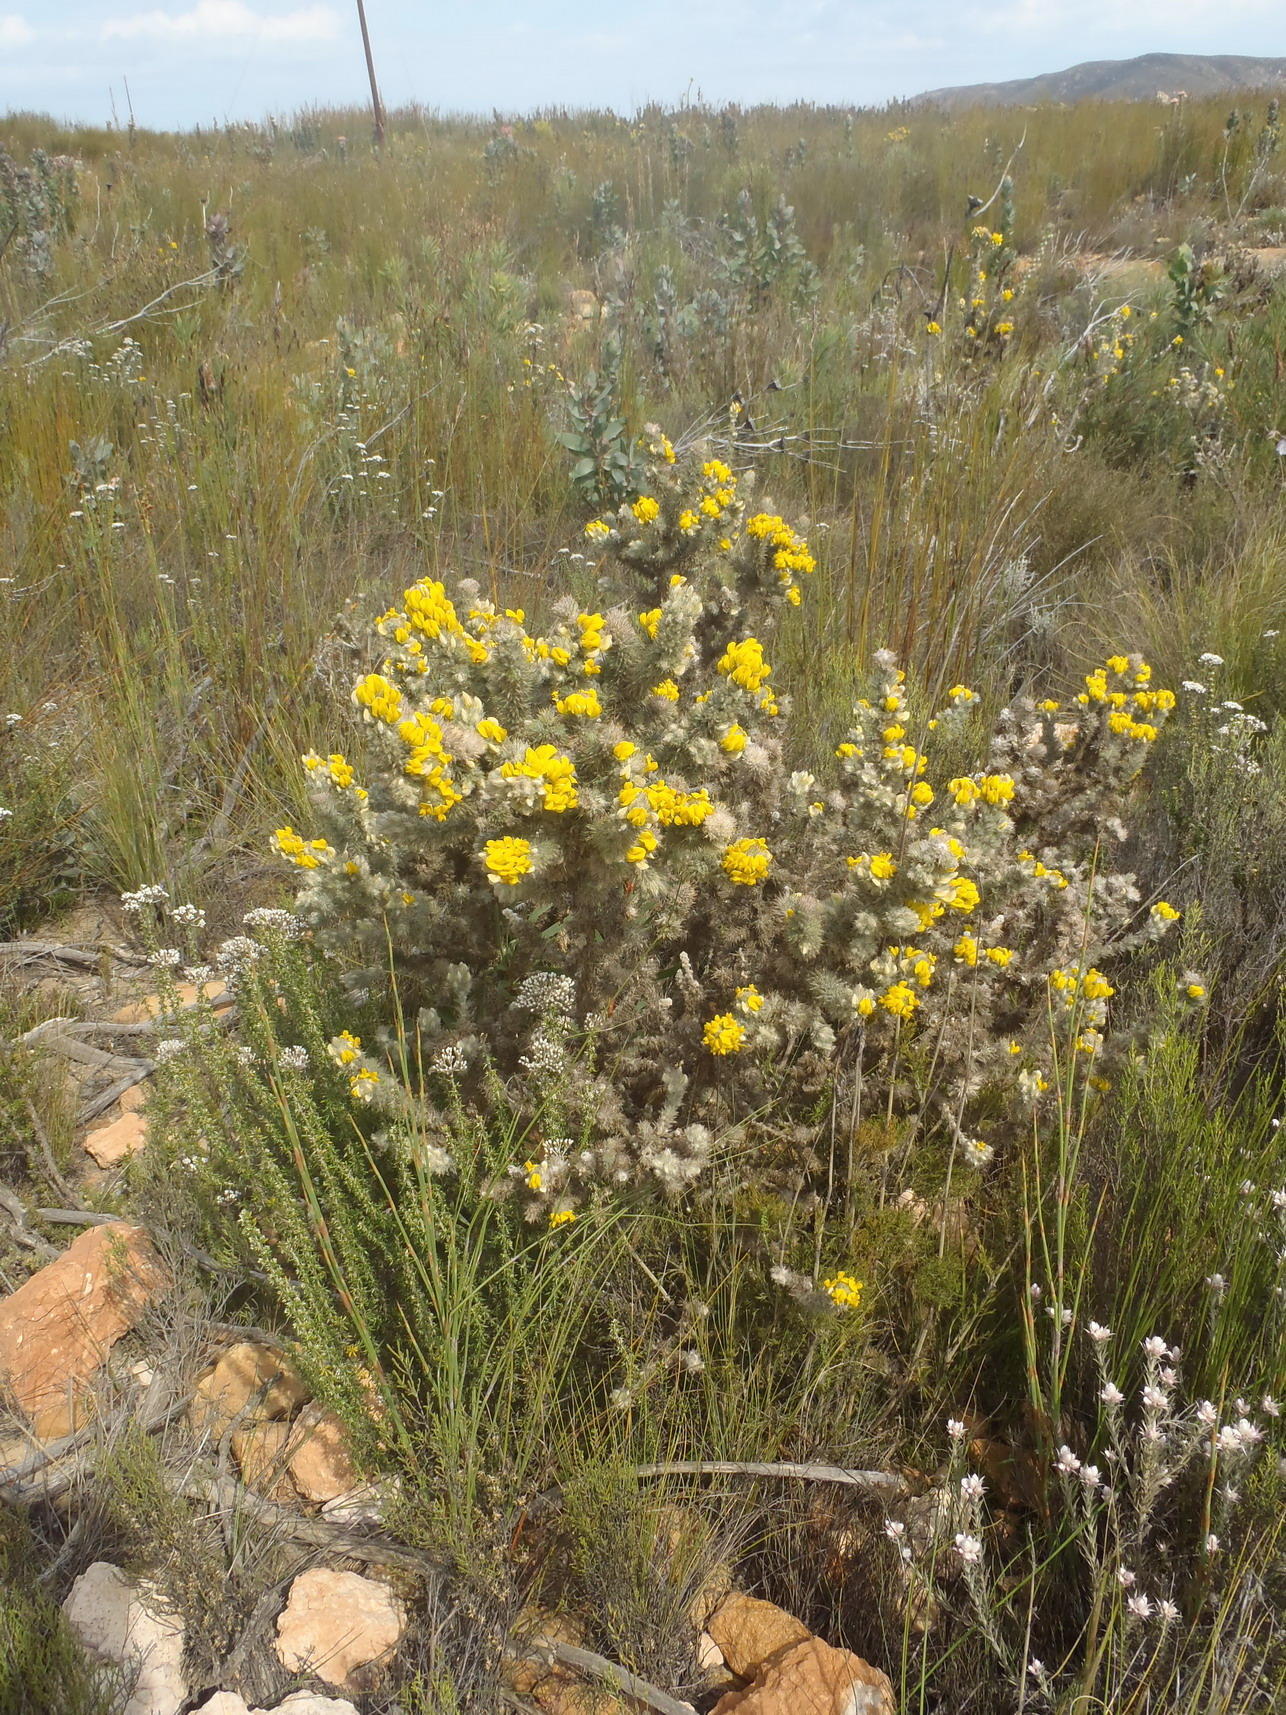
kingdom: Plantae
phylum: Tracheophyta
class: Magnoliopsida
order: Fabales
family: Fabaceae
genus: Aspalathus
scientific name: Aspalathus shawii
